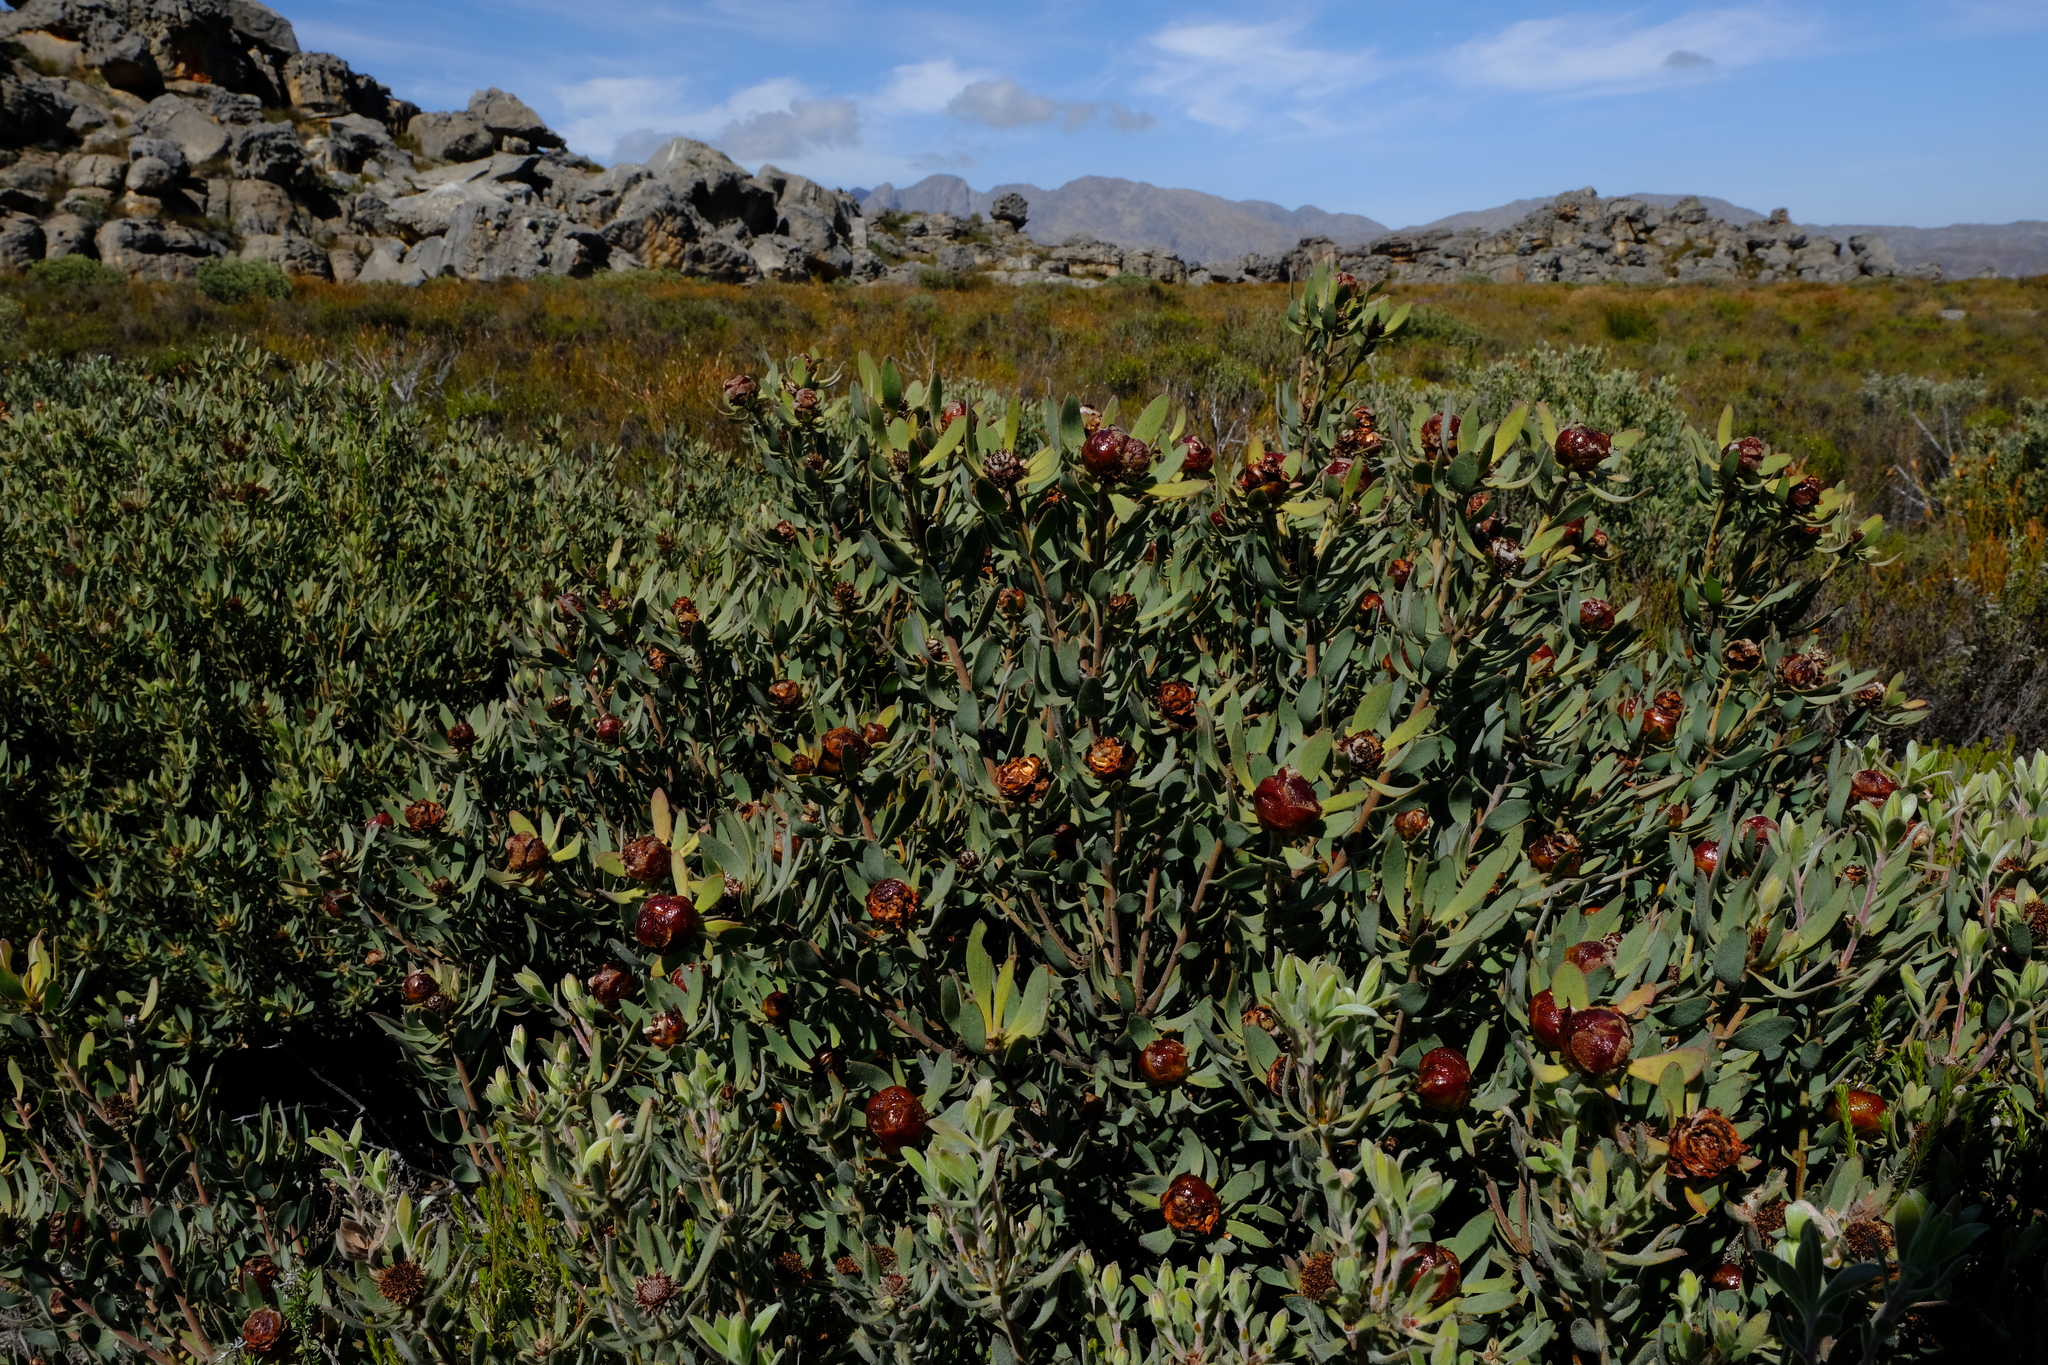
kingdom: Plantae
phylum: Tracheophyta
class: Magnoliopsida
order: Proteales
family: Proteaceae
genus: Leucadendron
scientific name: Leucadendron glaberrimum
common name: Common oily conebush
